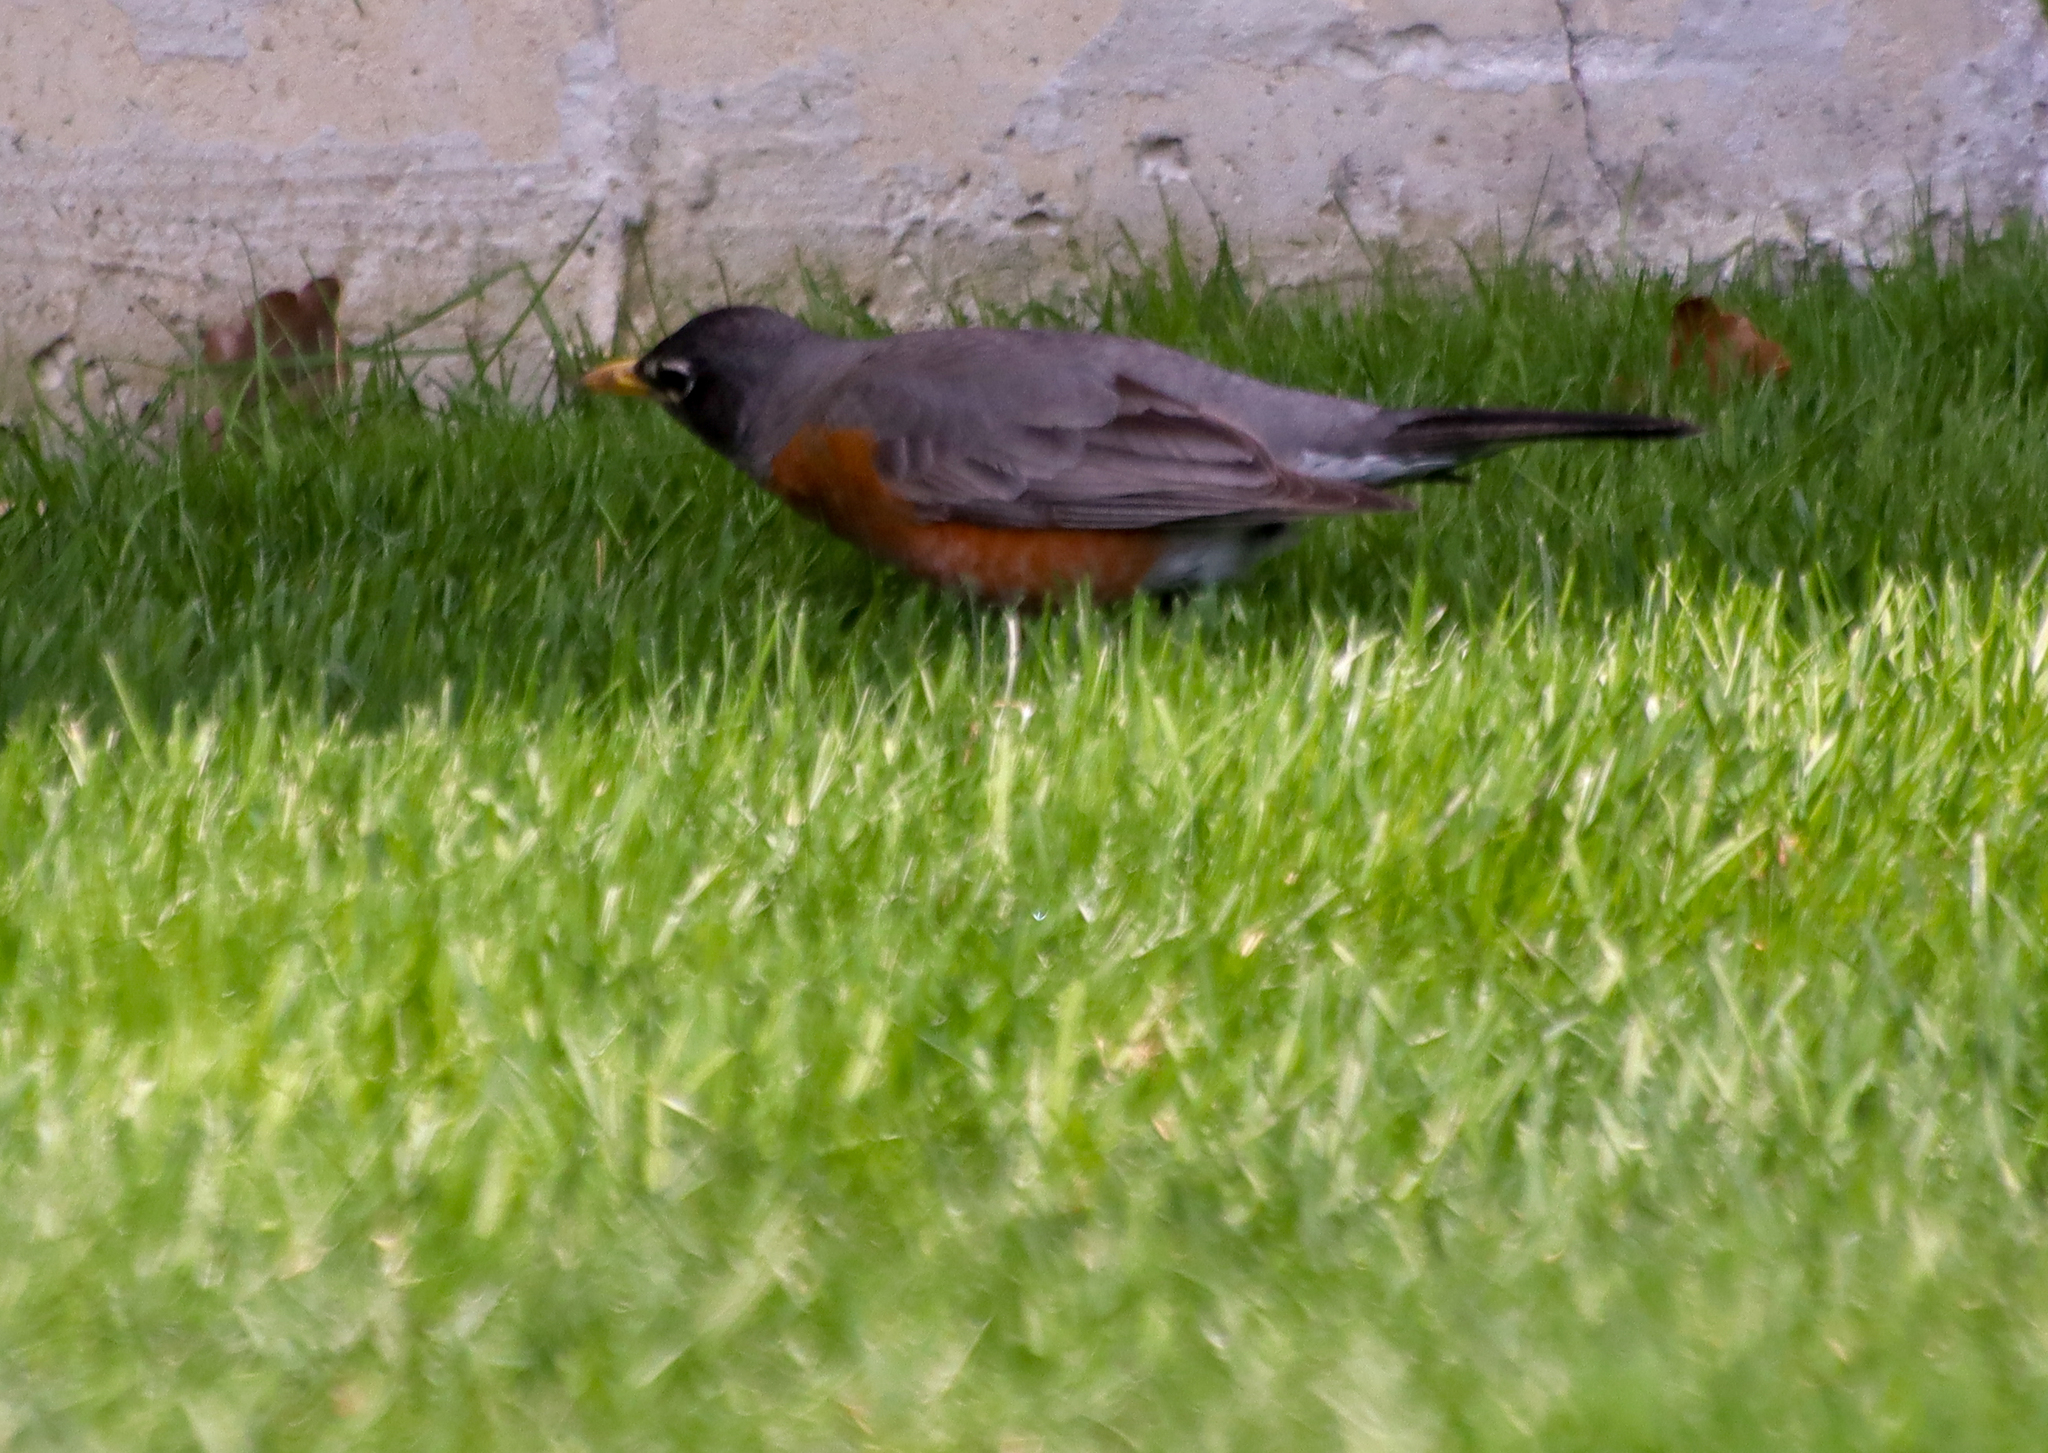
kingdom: Animalia
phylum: Chordata
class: Aves
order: Passeriformes
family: Turdidae
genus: Turdus
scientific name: Turdus migratorius
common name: American robin
